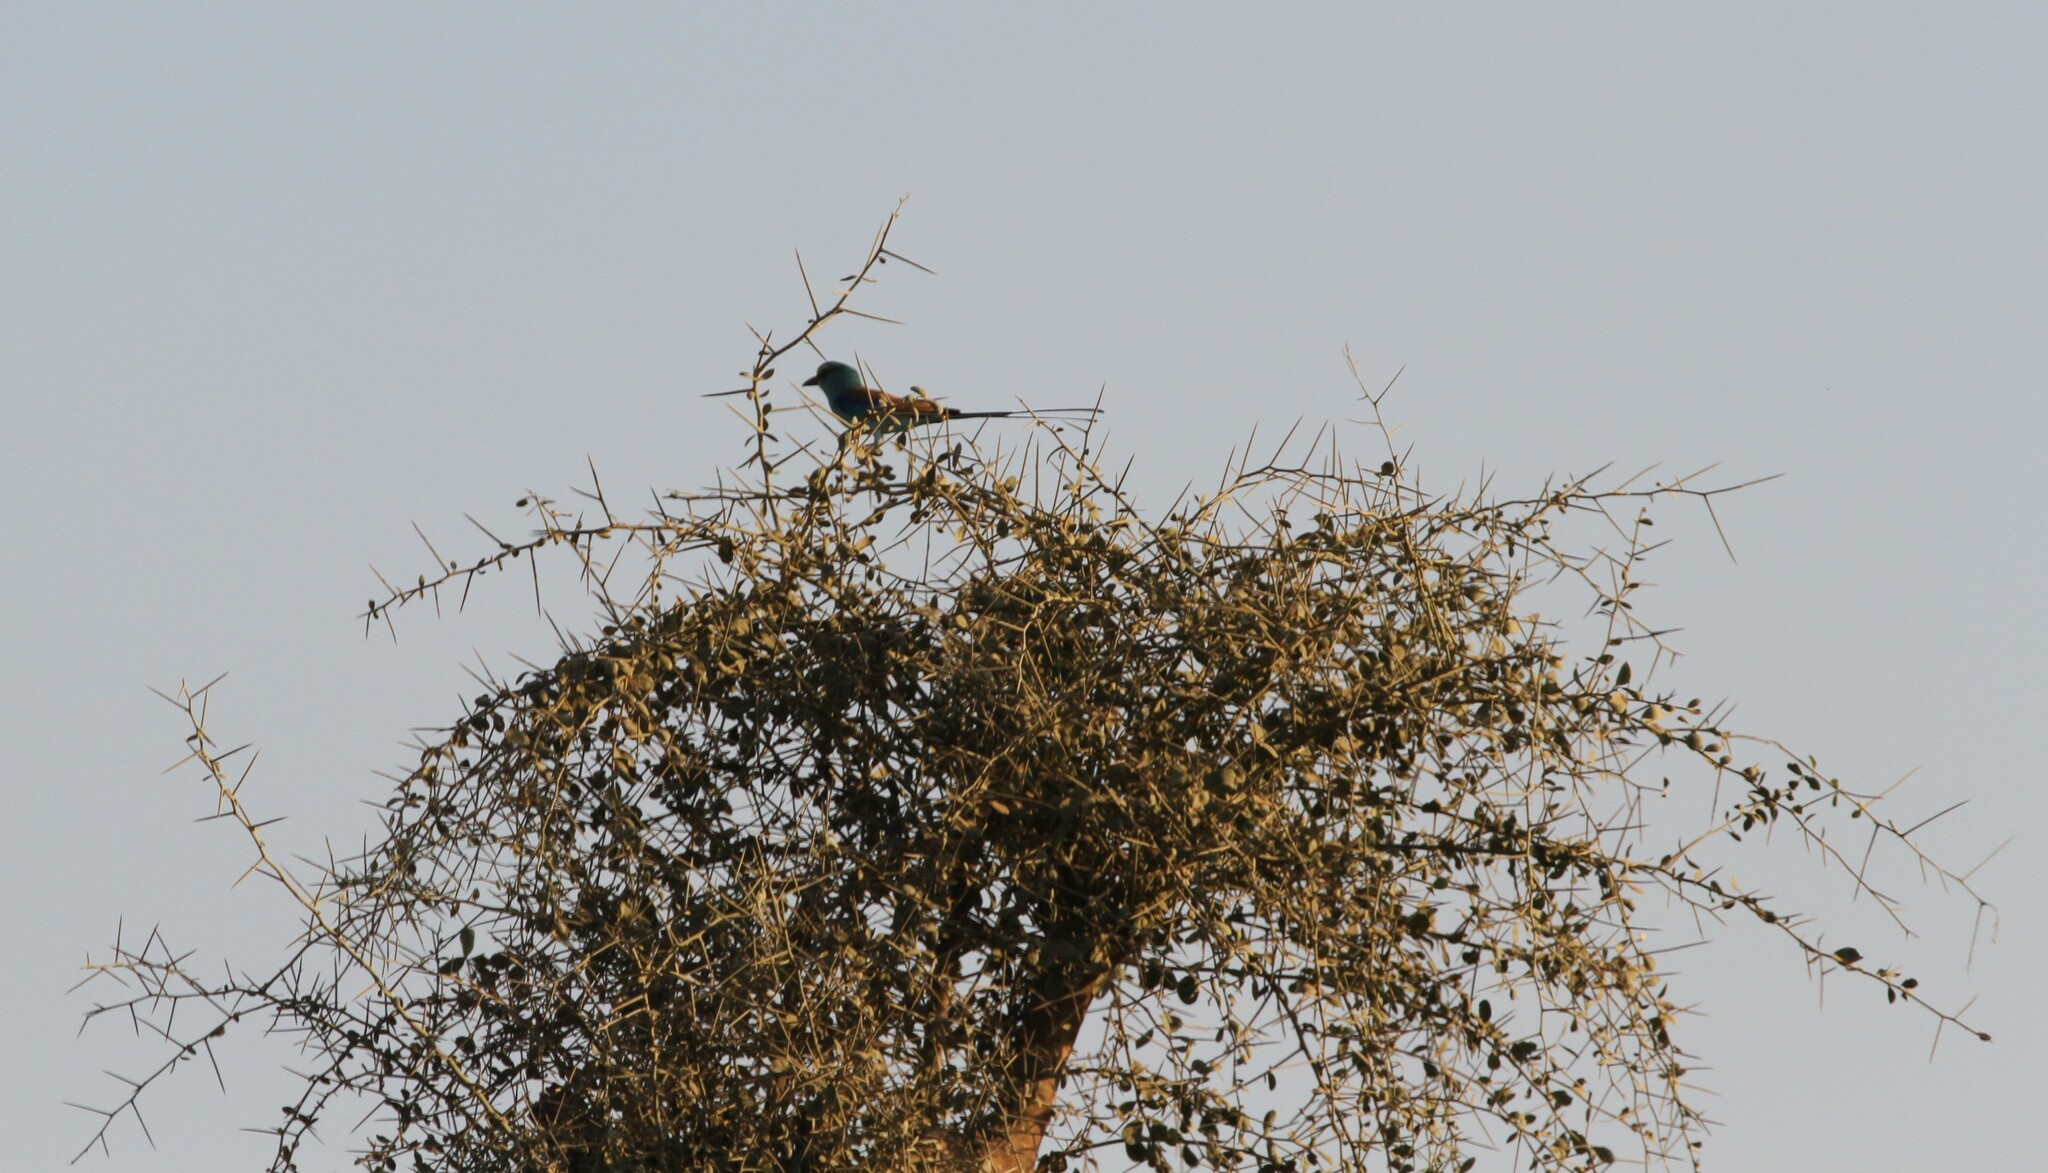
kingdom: Animalia
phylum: Chordata
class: Aves
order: Coraciiformes
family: Coraciidae
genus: Coracias
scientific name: Coracias abyssinicus
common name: Abyssinian roller
